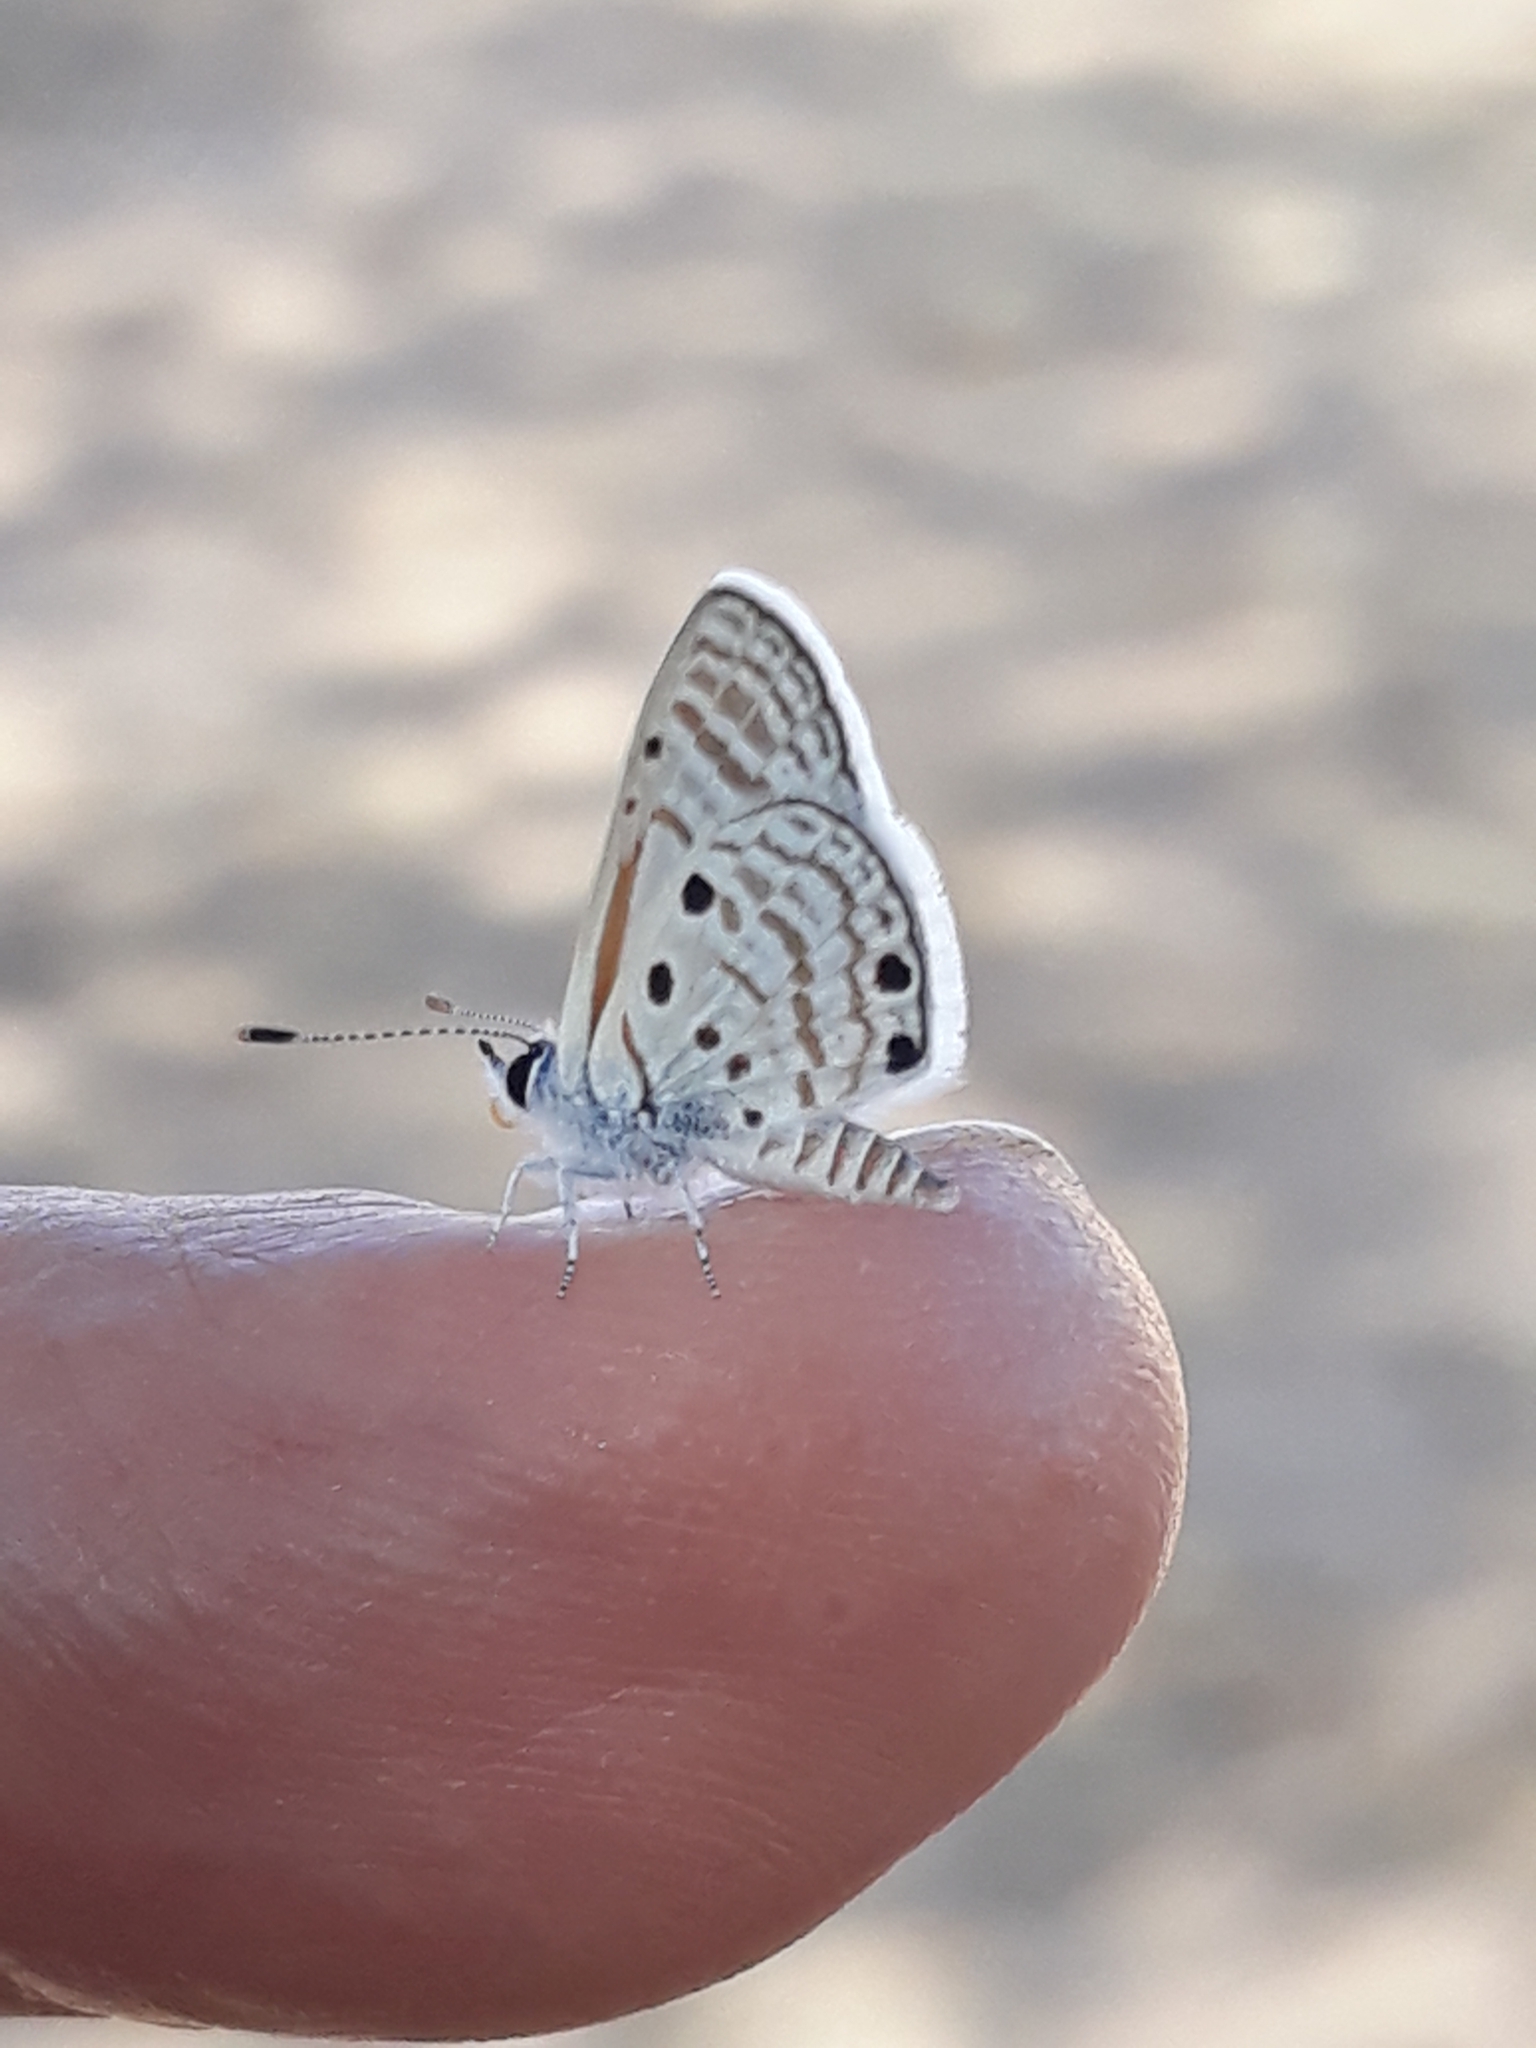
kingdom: Animalia
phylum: Arthropoda
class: Insecta
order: Lepidoptera
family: Lycaenidae
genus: Azanus
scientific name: Azanus ubaldus
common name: Desert babul blue
